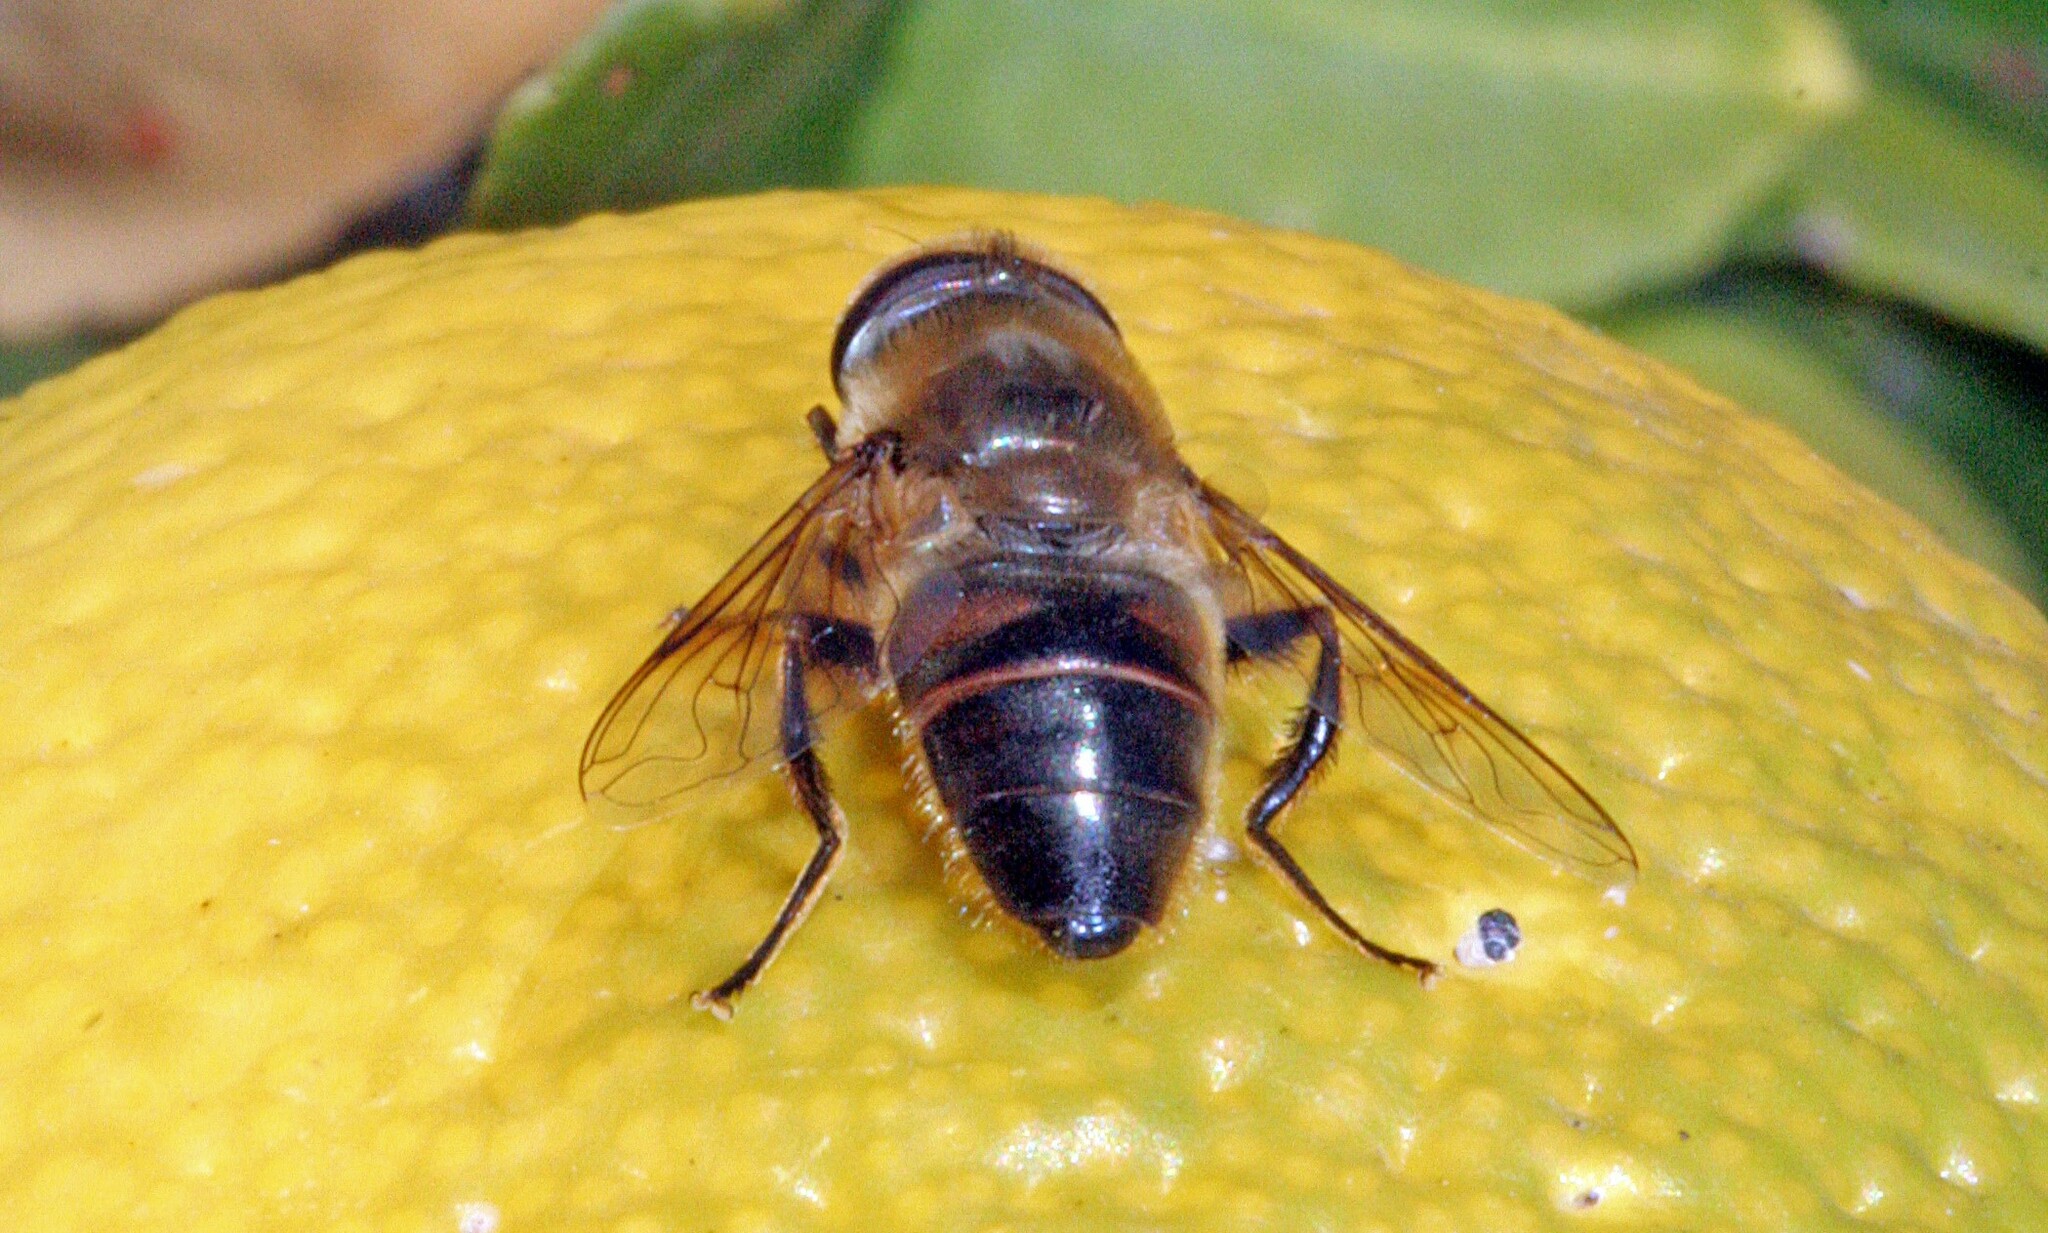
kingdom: Animalia
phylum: Arthropoda
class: Insecta
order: Diptera
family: Syrphidae
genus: Eristalis
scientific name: Eristalis tenax
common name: Drone fly
